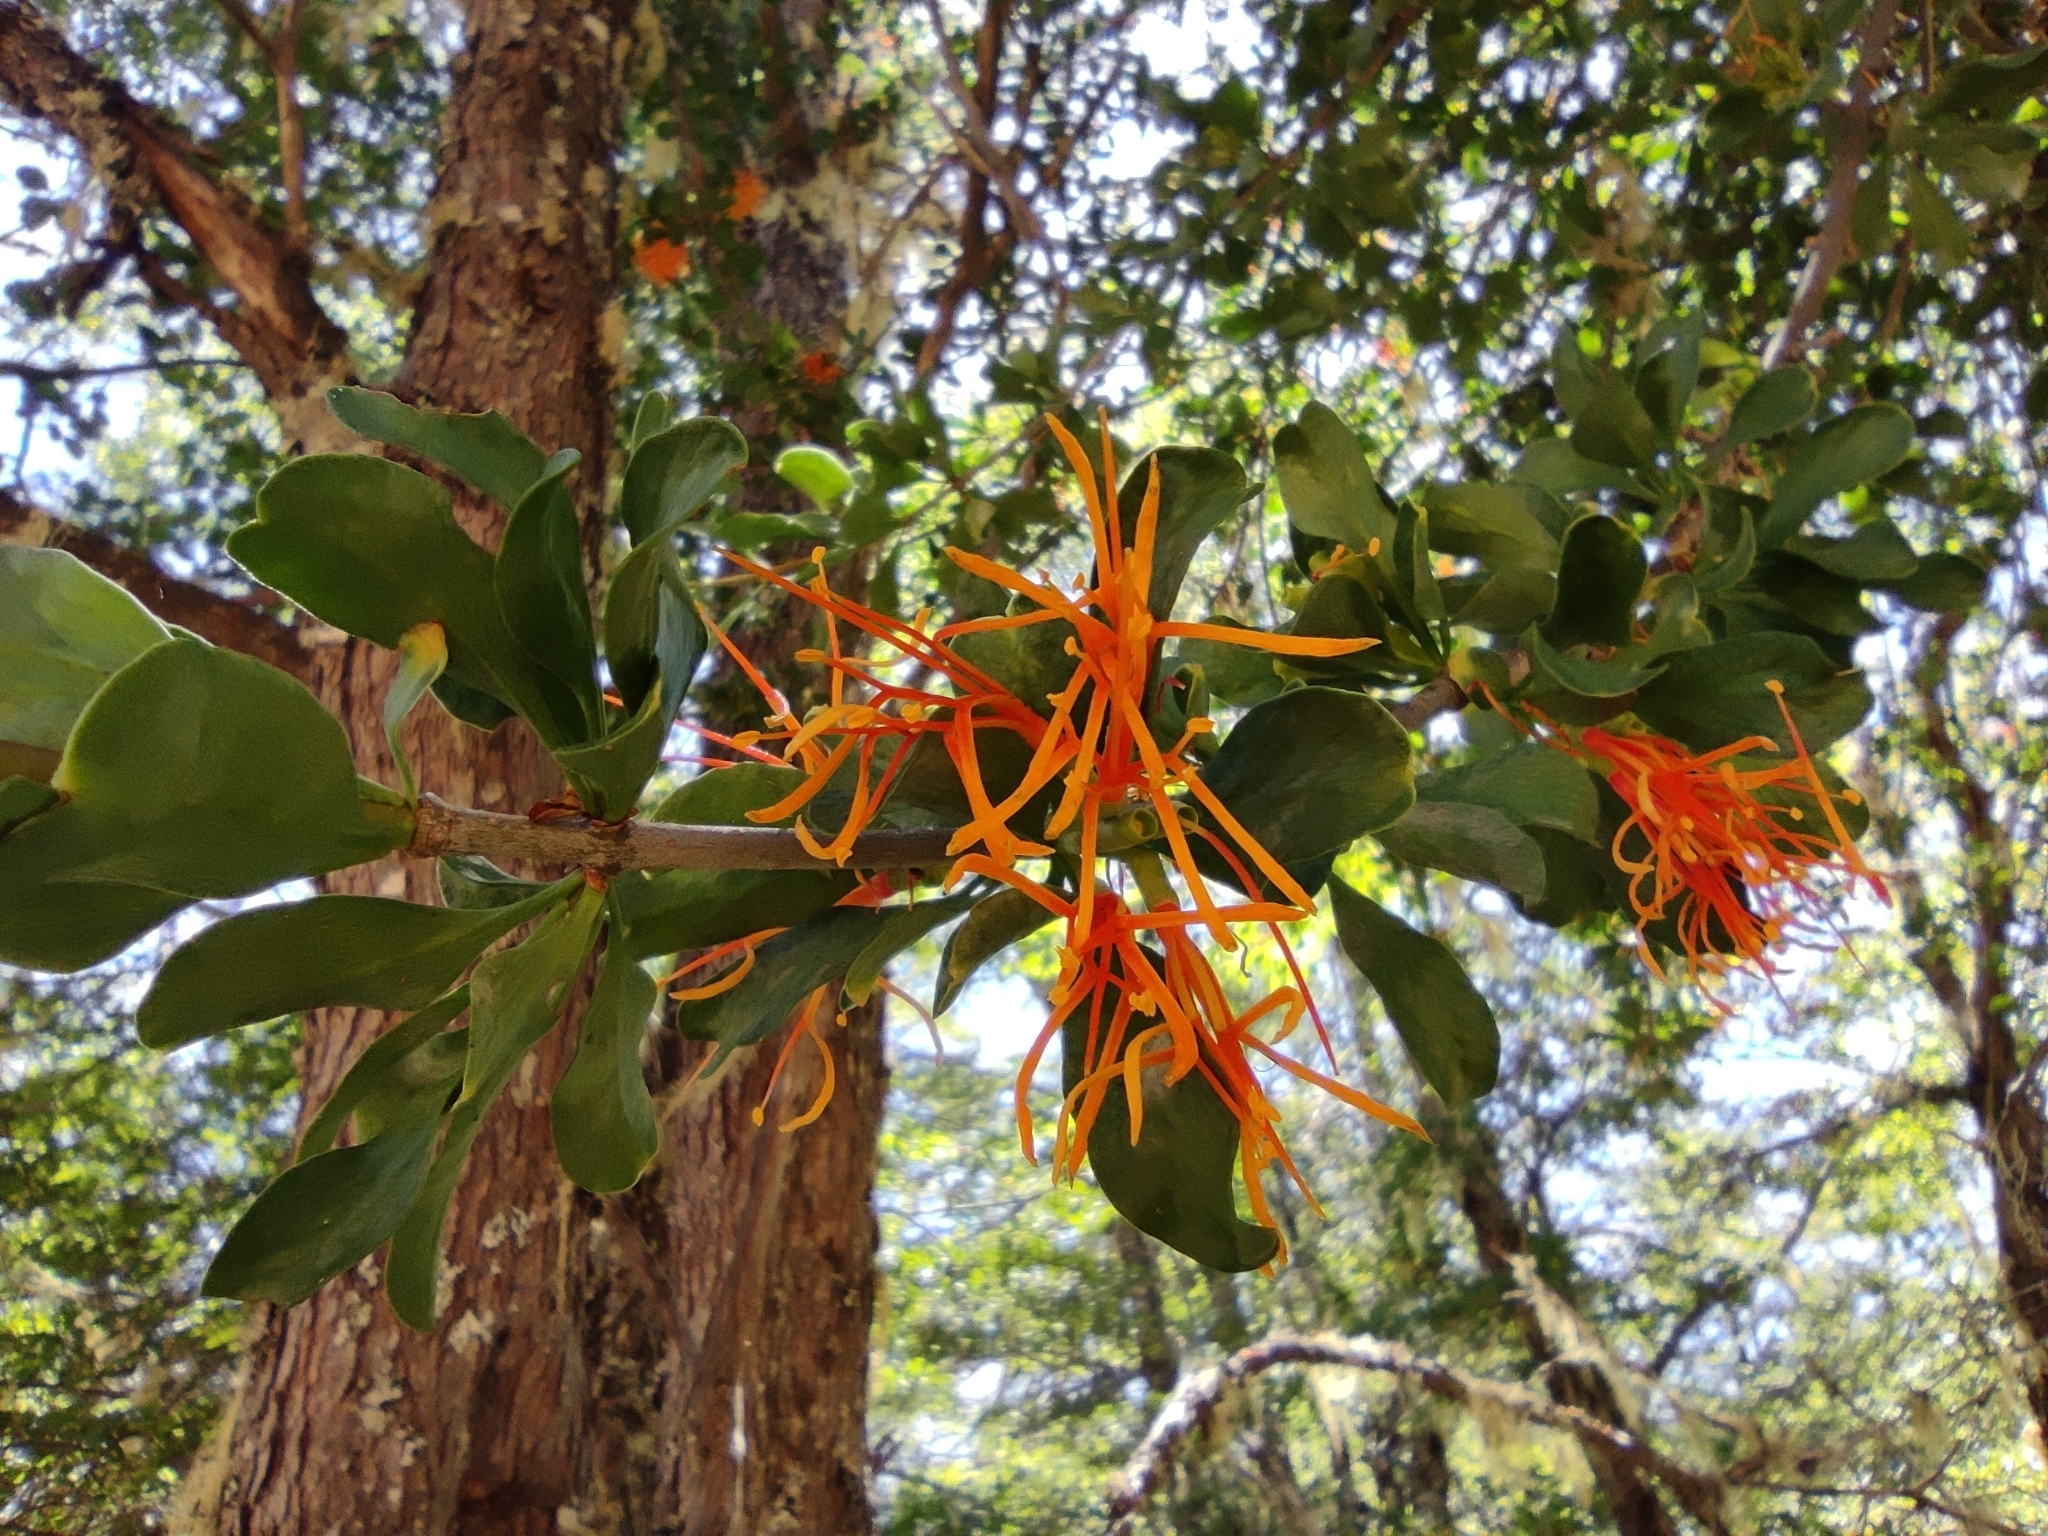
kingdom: Plantae
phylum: Tracheophyta
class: Magnoliopsida
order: Santalales
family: Loranthaceae
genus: Tristerix
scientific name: Tristerix corymbosus
